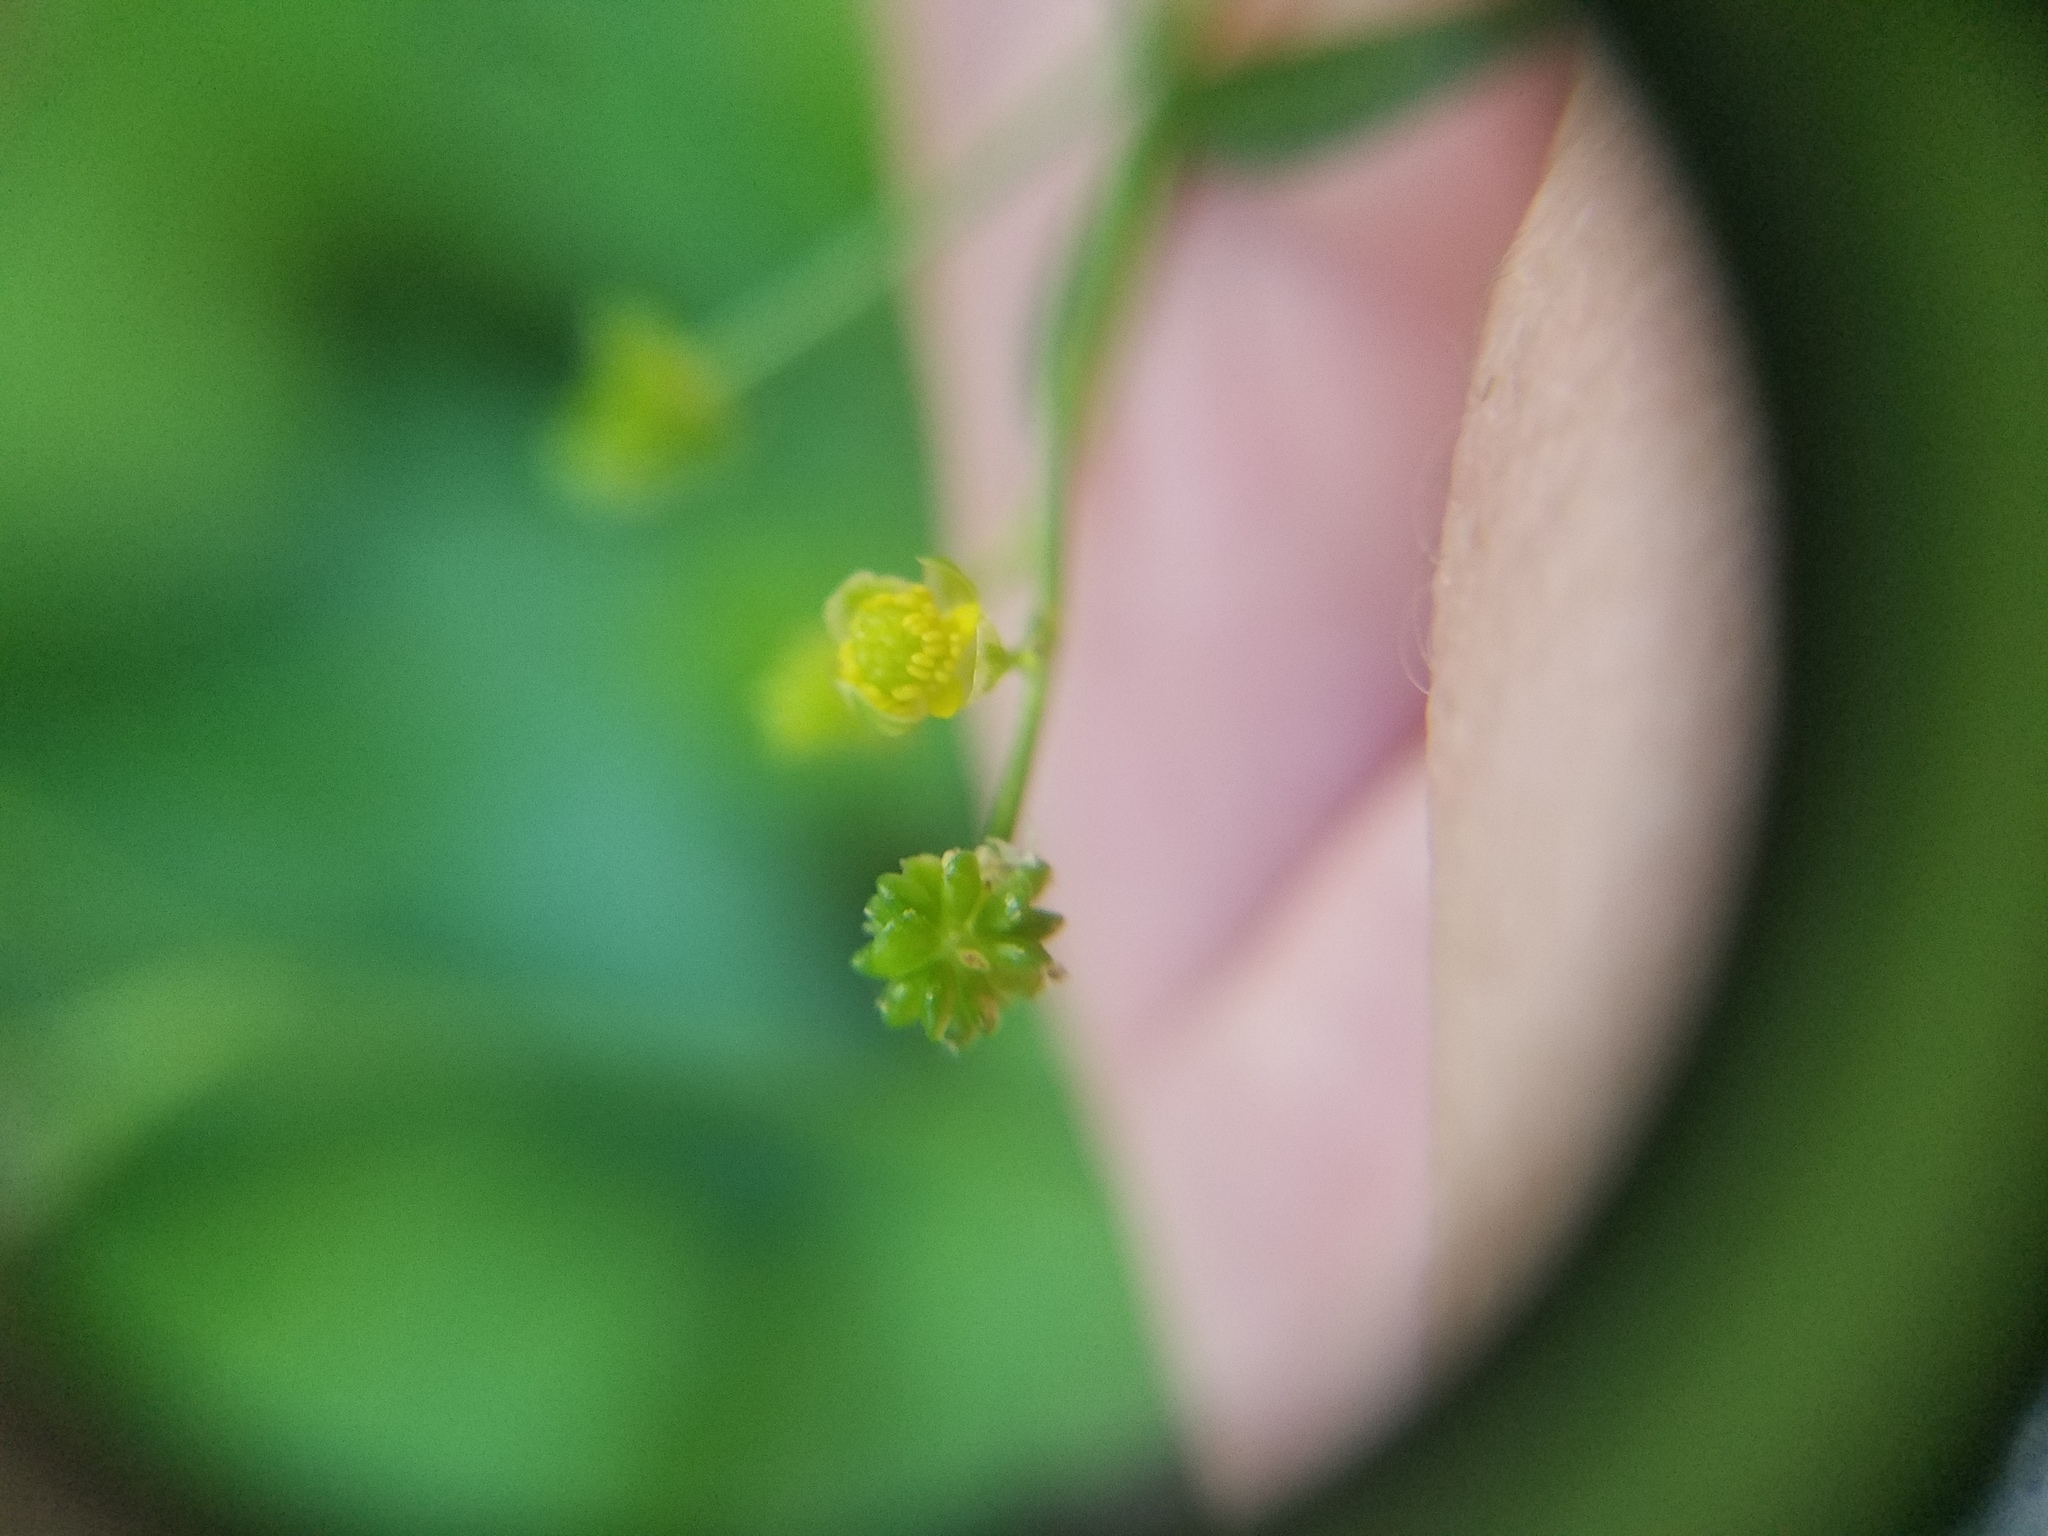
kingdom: Plantae
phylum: Tracheophyta
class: Magnoliopsida
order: Ranunculales
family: Ranunculaceae
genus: Ranunculus
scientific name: Ranunculus abortivus
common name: Early wood buttercup
